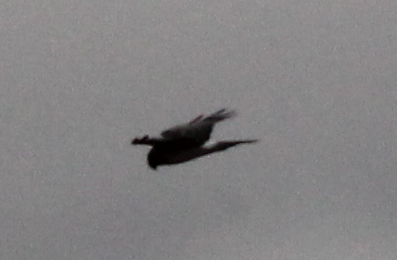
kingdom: Animalia
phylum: Chordata
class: Aves
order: Accipitriformes
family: Accipitridae
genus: Circus
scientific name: Circus cyaneus
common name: Hen harrier
